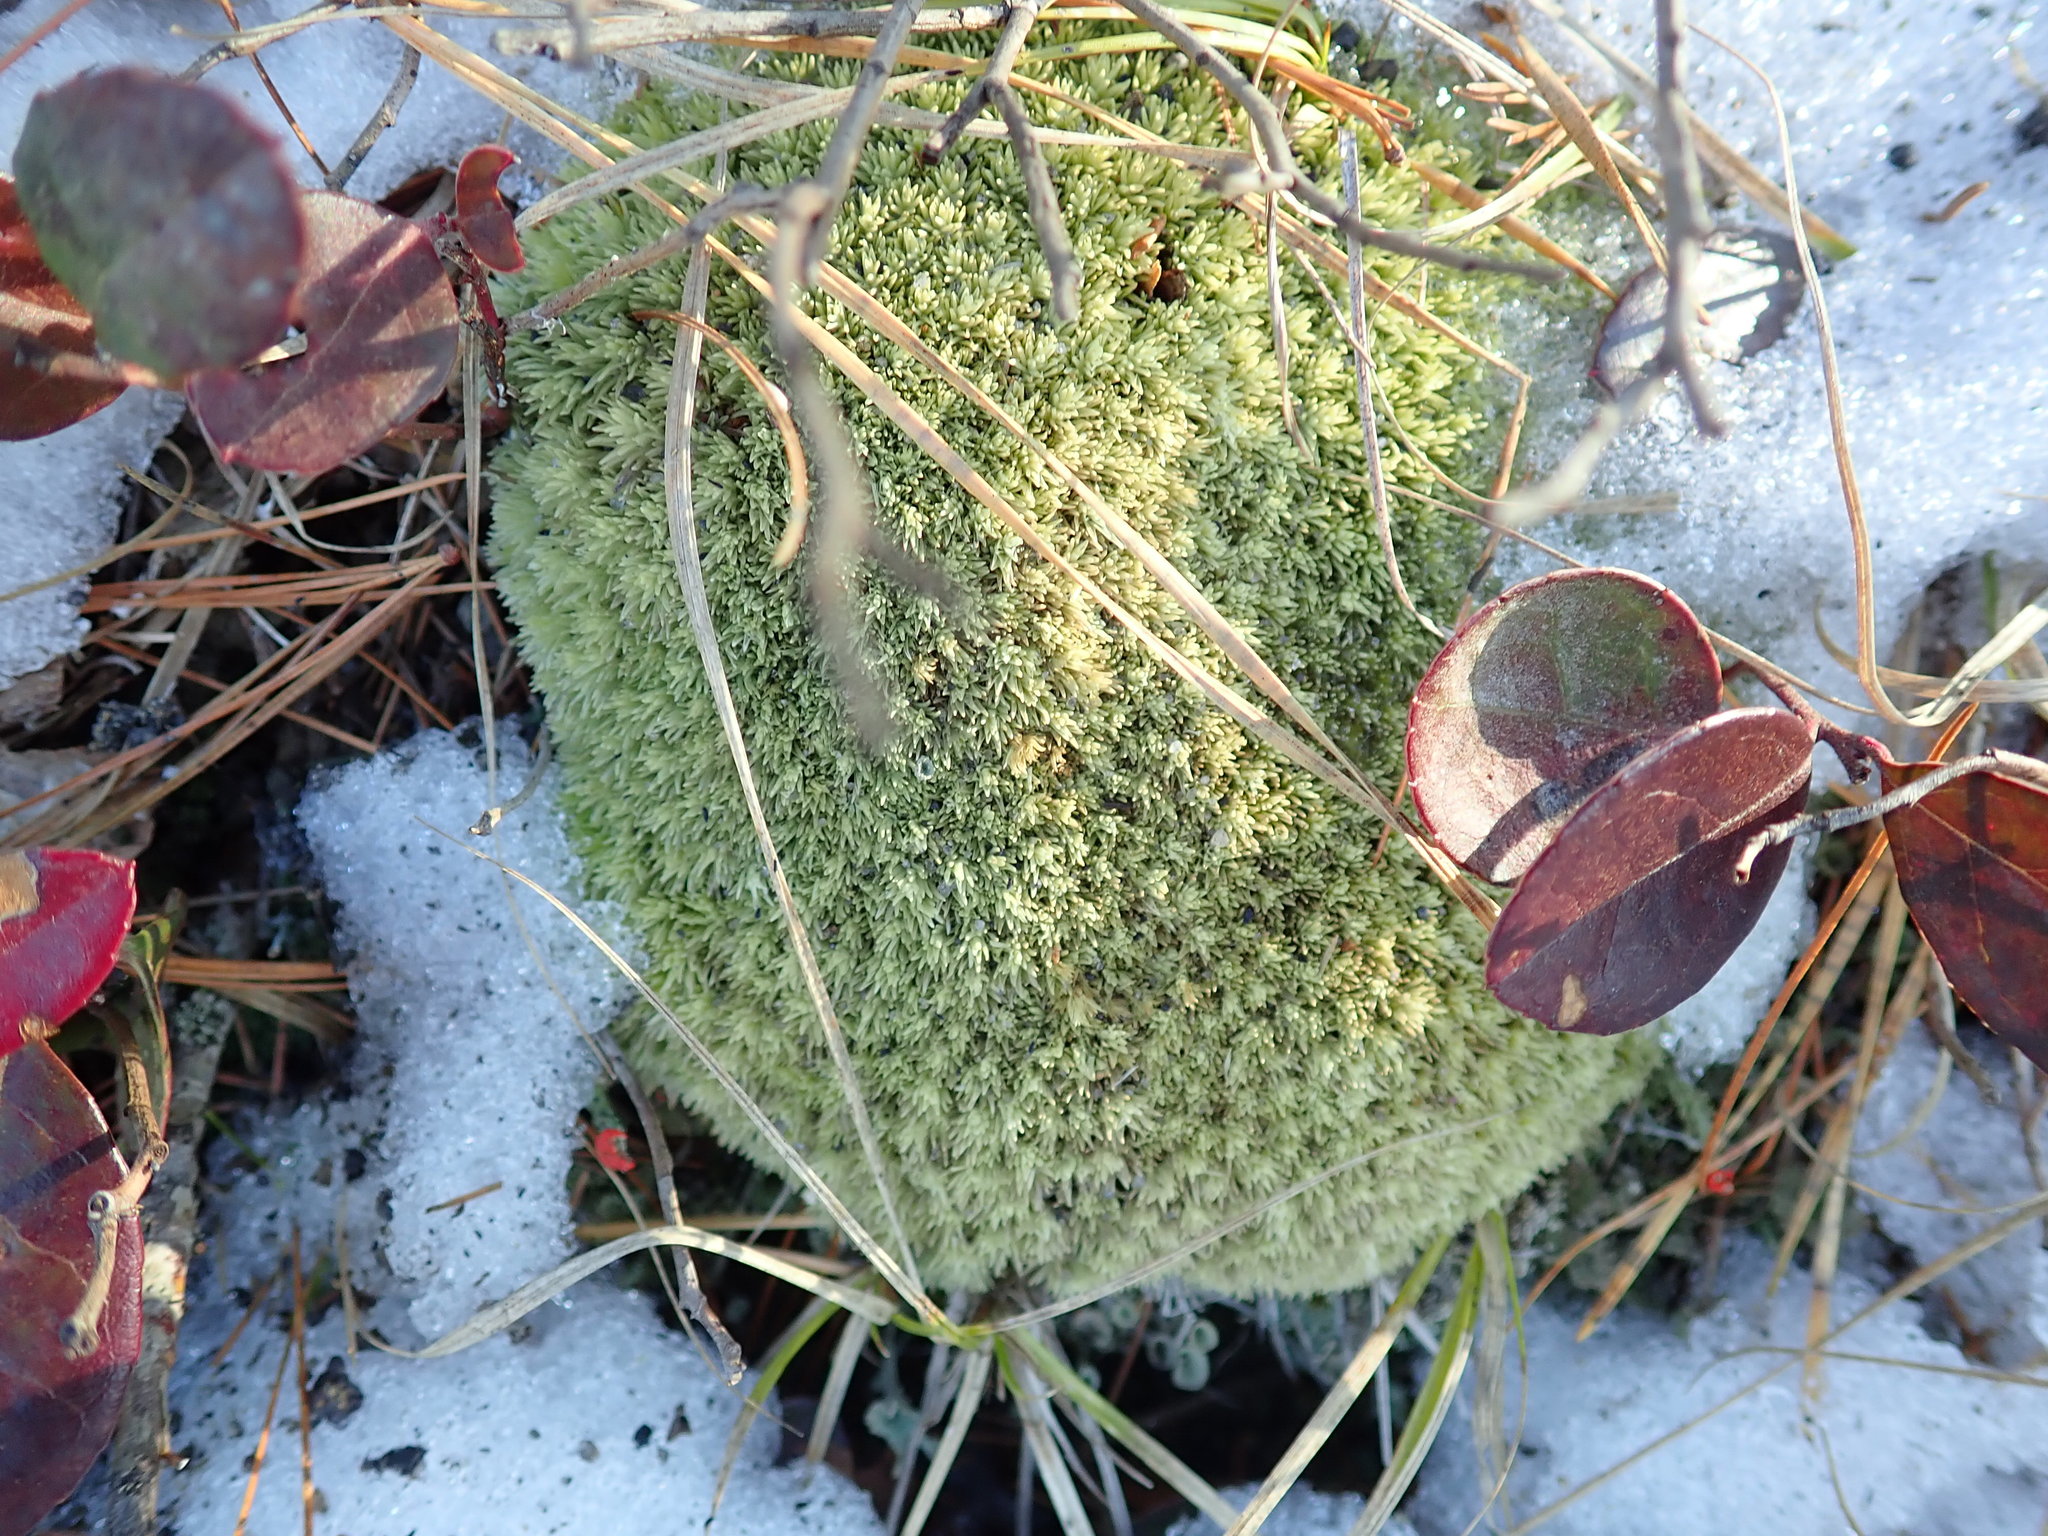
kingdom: Plantae
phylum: Bryophyta
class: Bryopsida
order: Dicranales
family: Leucobryaceae
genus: Leucobryum
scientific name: Leucobryum glaucum
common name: Large white-moss
